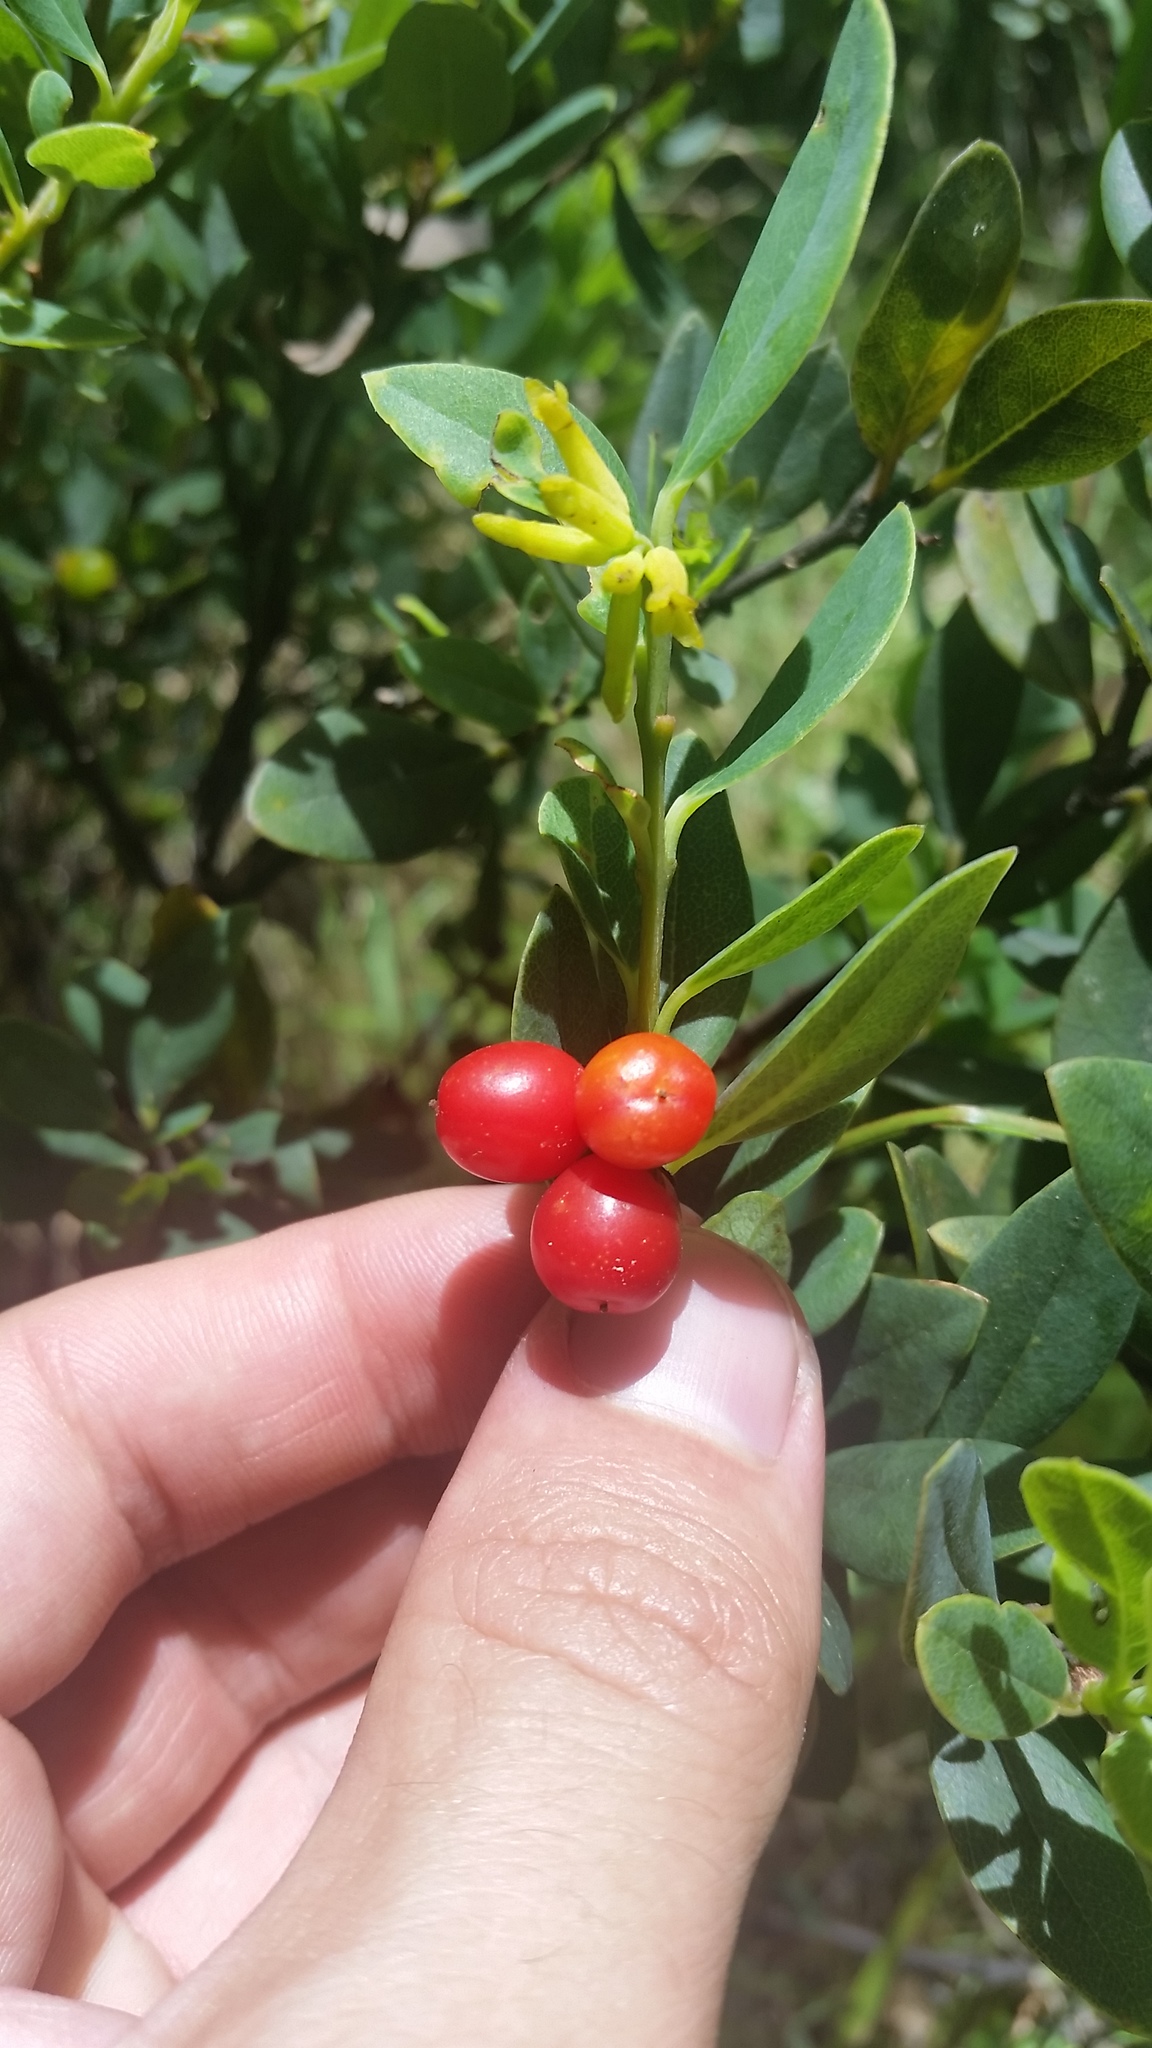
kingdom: Plantae
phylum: Tracheophyta
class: Magnoliopsida
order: Malvales
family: Thymelaeaceae
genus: Wikstroemia
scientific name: Wikstroemia phillyreifolia
